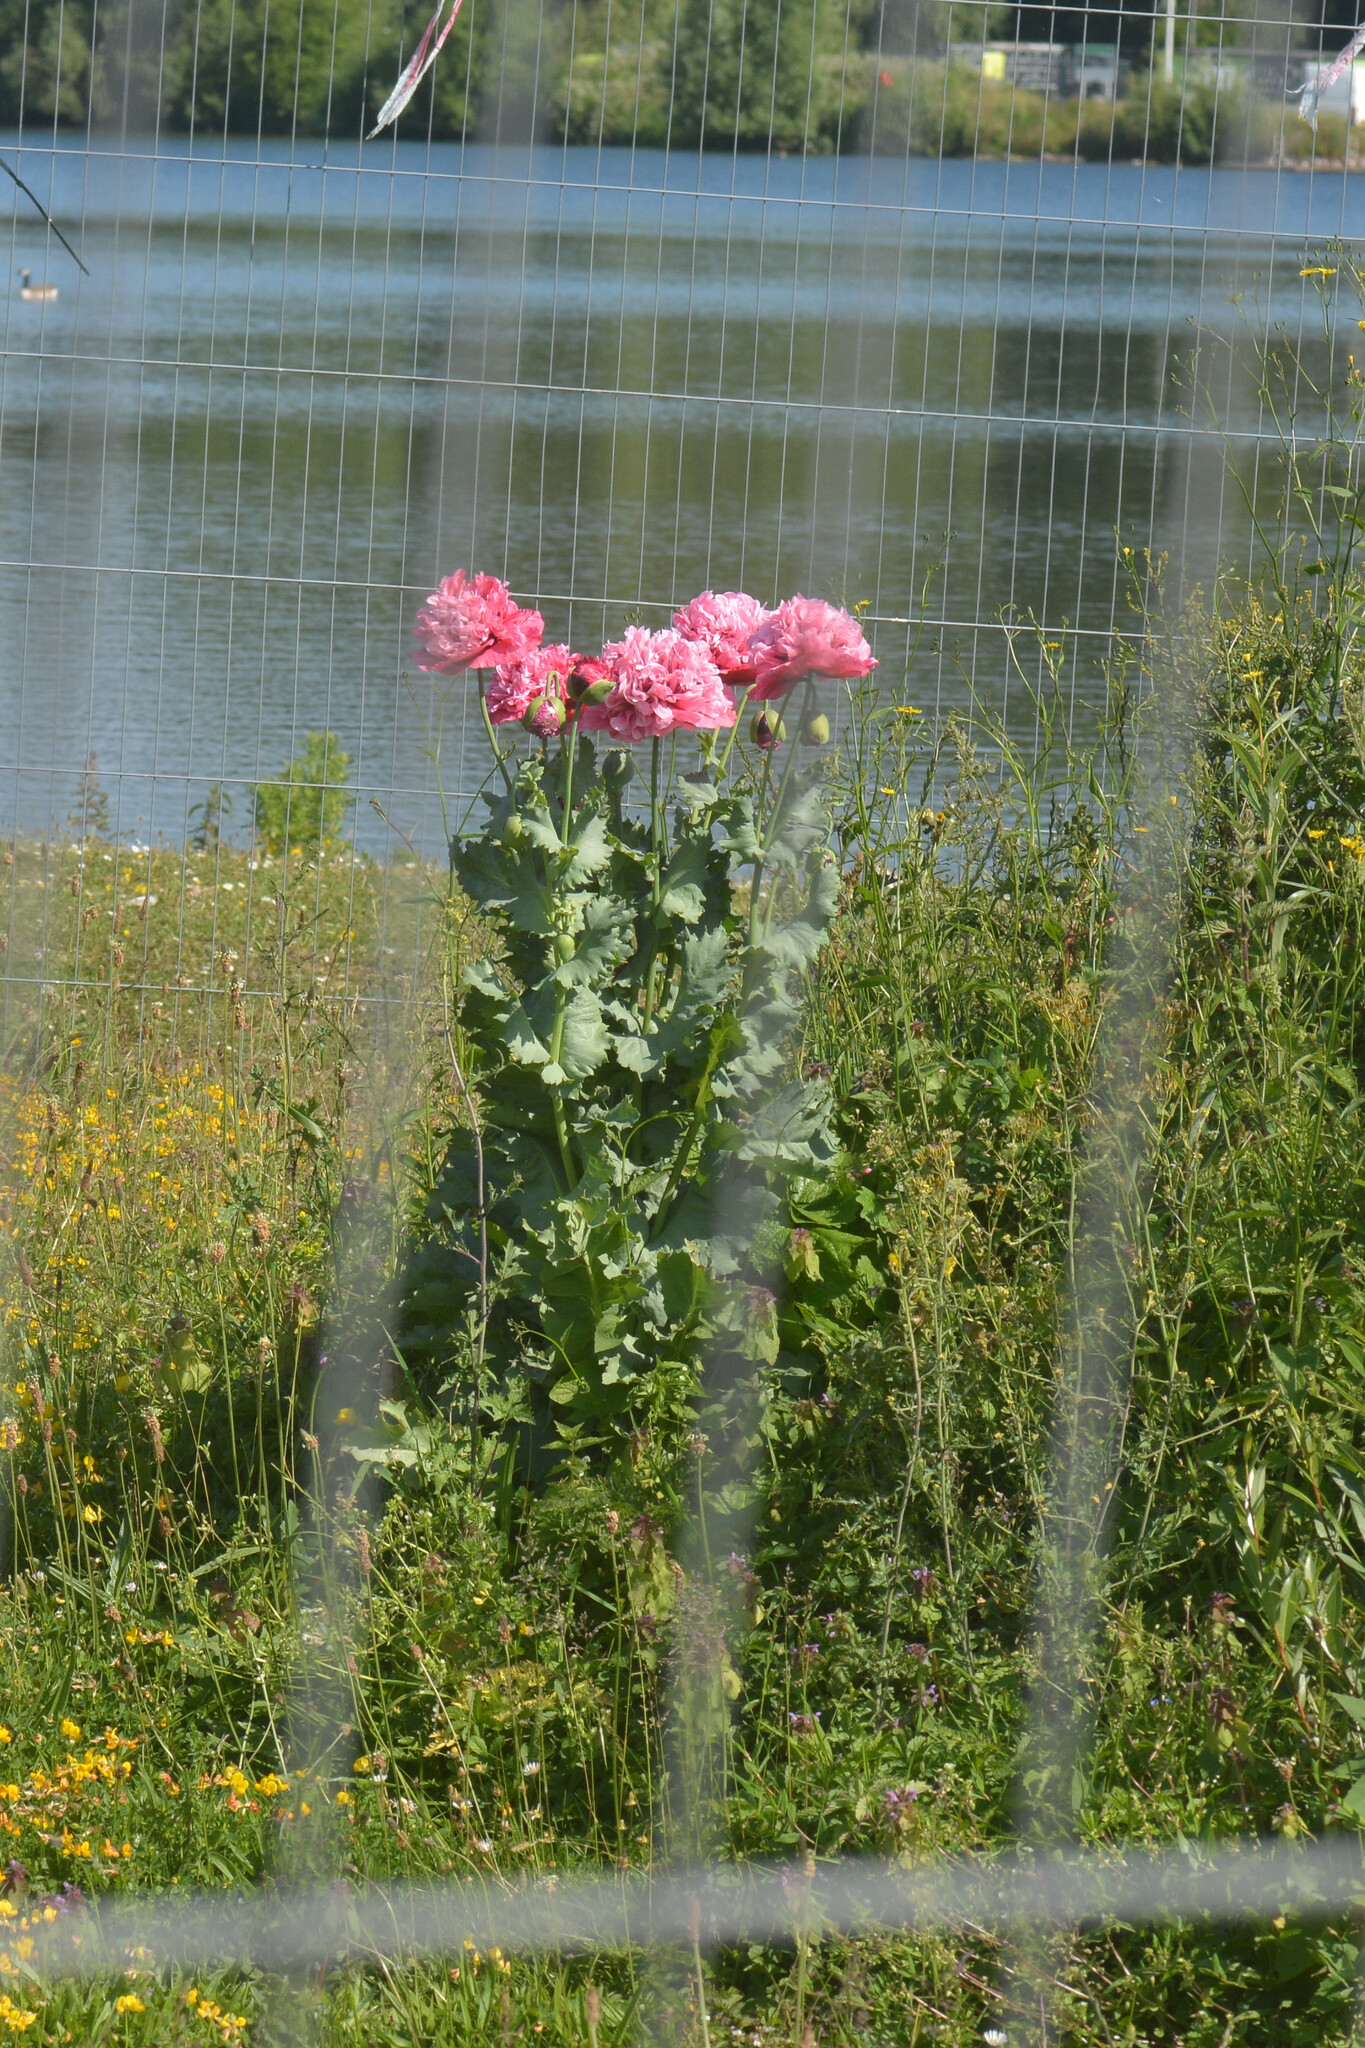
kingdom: Plantae
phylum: Tracheophyta
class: Magnoliopsida
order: Ranunculales
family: Papaveraceae
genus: Papaver
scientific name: Papaver somniferum
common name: Opium poppy
